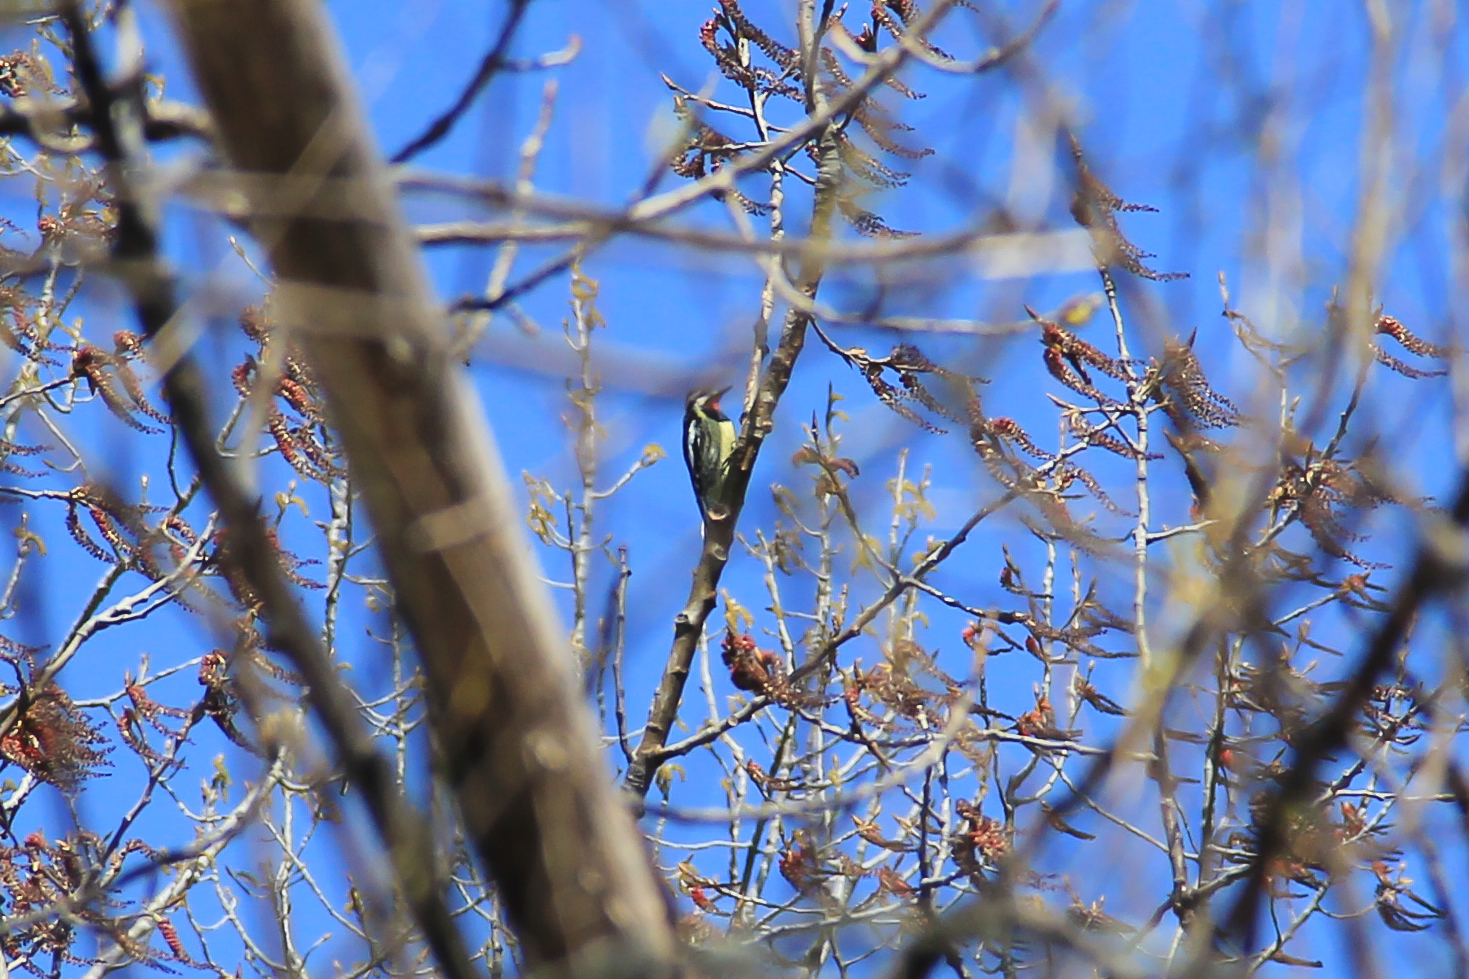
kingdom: Animalia
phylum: Chordata
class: Aves
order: Piciformes
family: Picidae
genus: Sphyrapicus
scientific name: Sphyrapicus varius
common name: Yellow-bellied sapsucker
